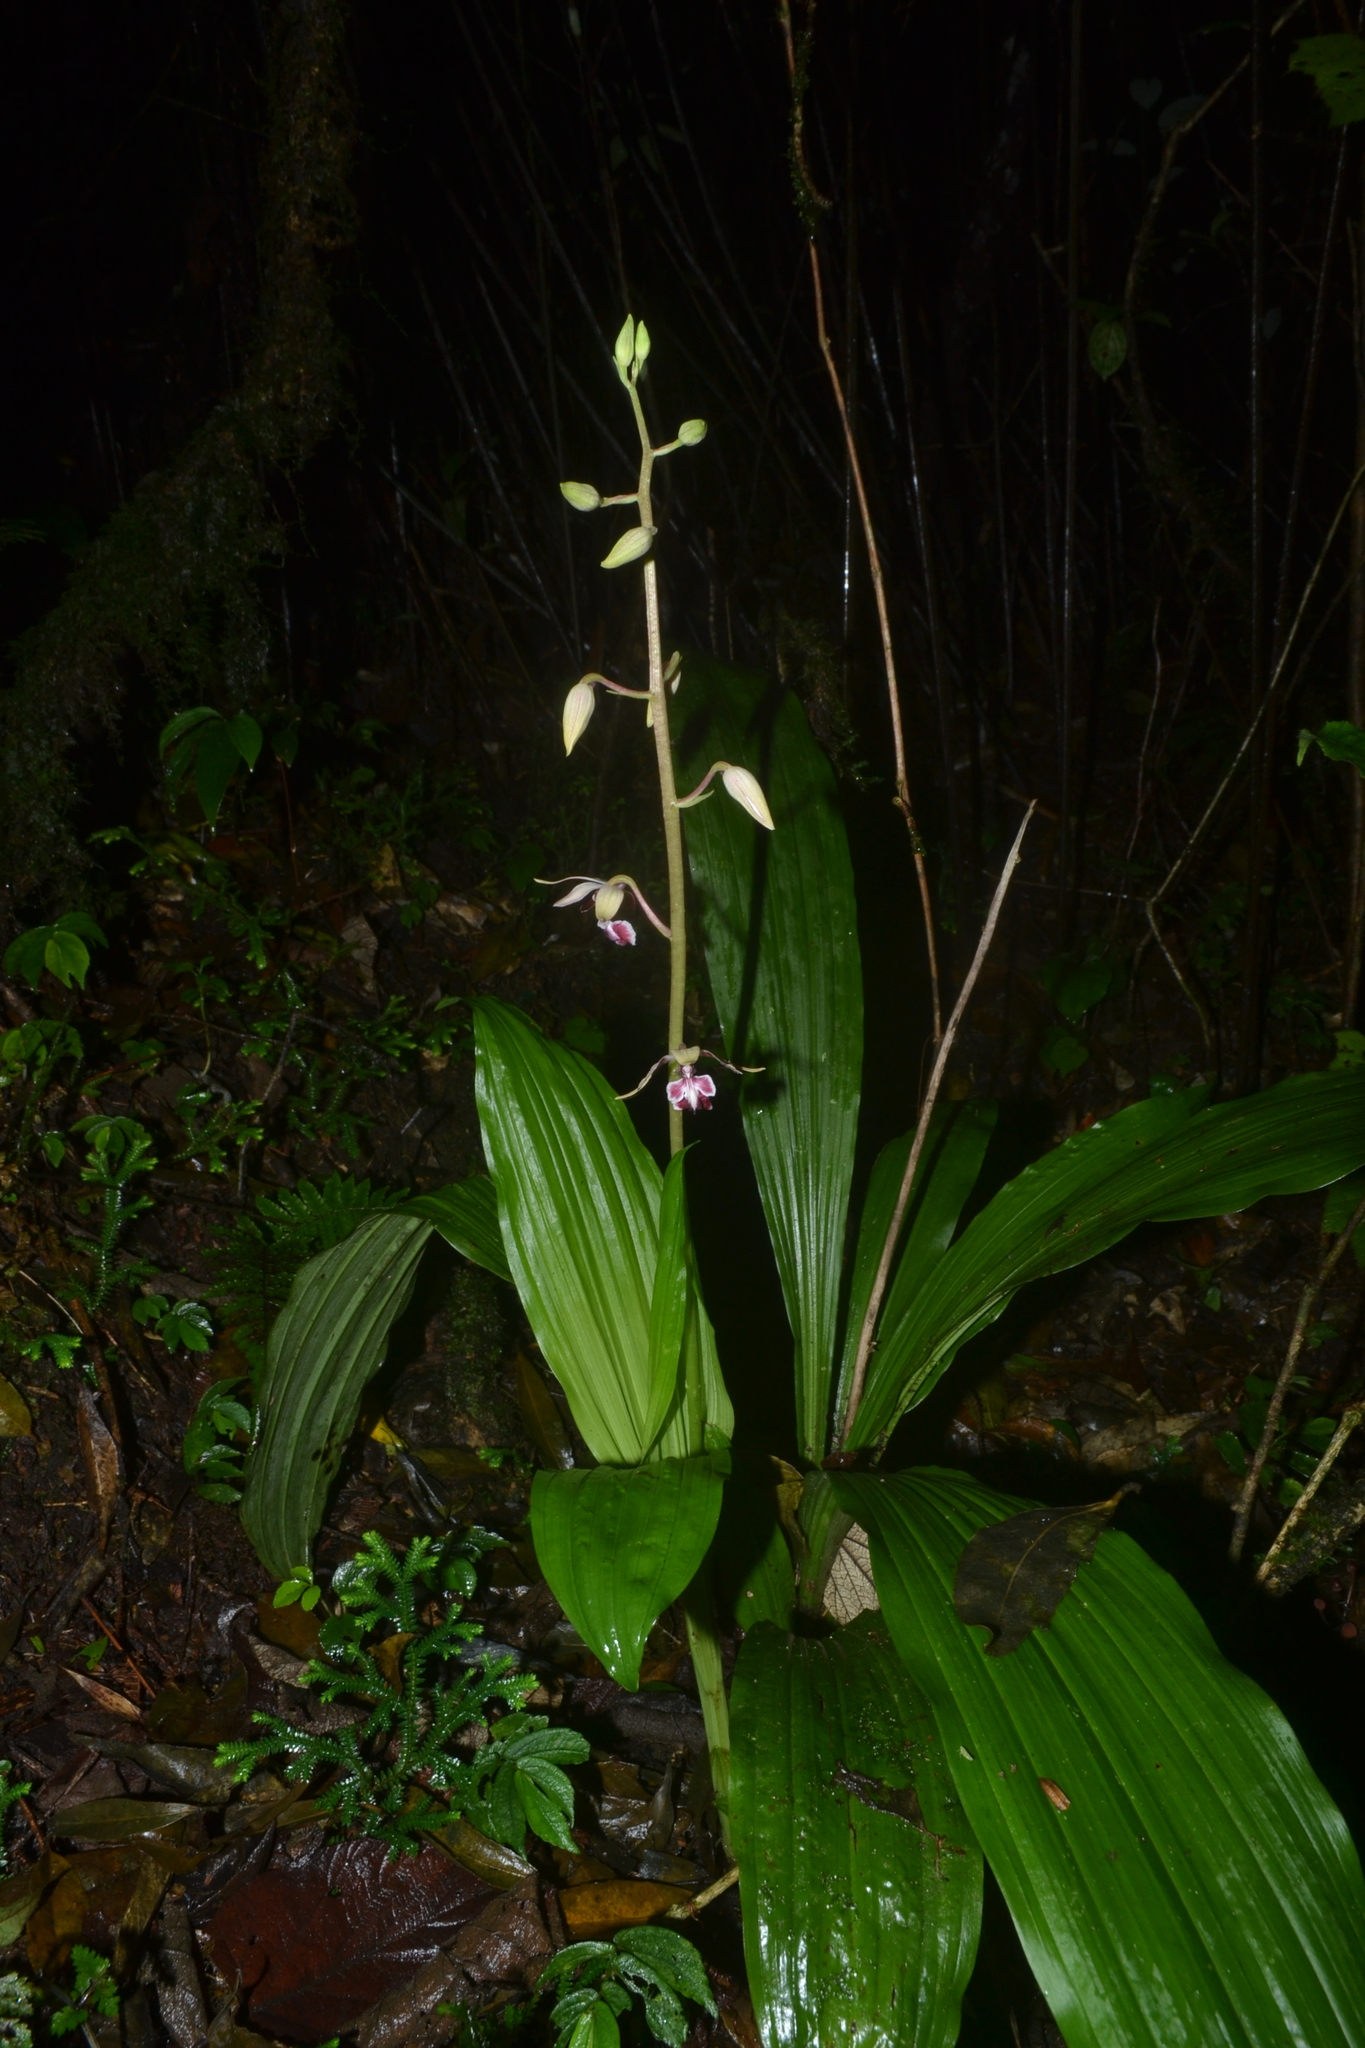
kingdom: Plantae
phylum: Tracheophyta
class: Liliopsida
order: Asparagales
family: Orchidaceae
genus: Calanthe
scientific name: Calanthe brevicornu
